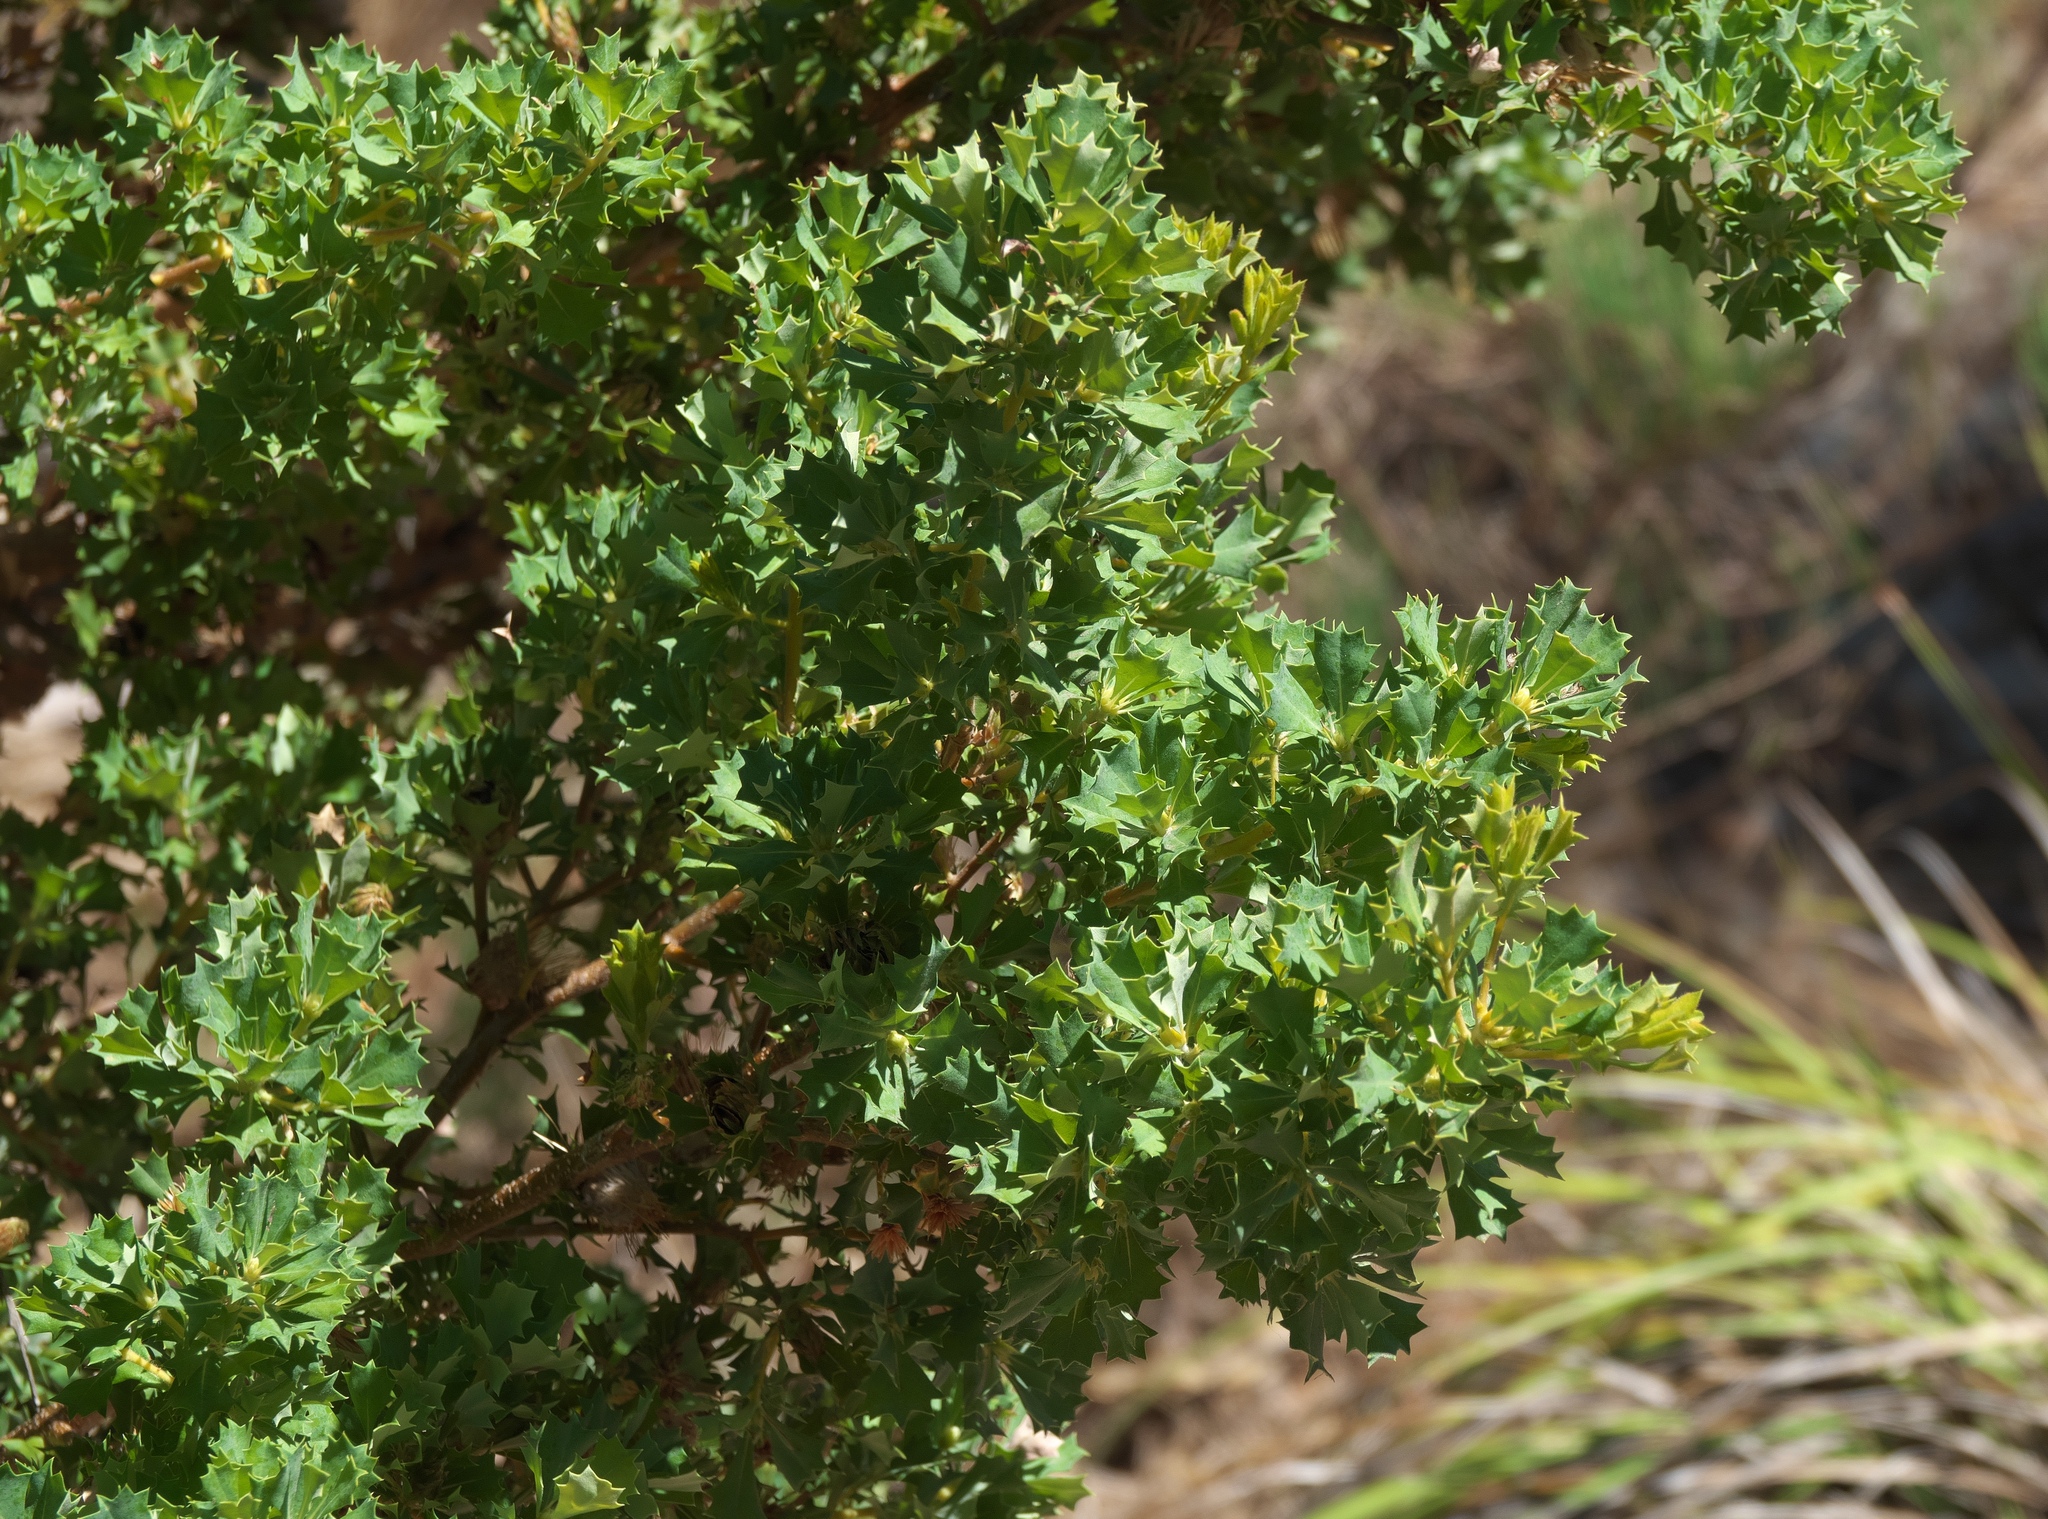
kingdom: Plantae
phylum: Tracheophyta
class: Magnoliopsida
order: Proteales
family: Proteaceae
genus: Banksia
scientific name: Banksia sessilis
